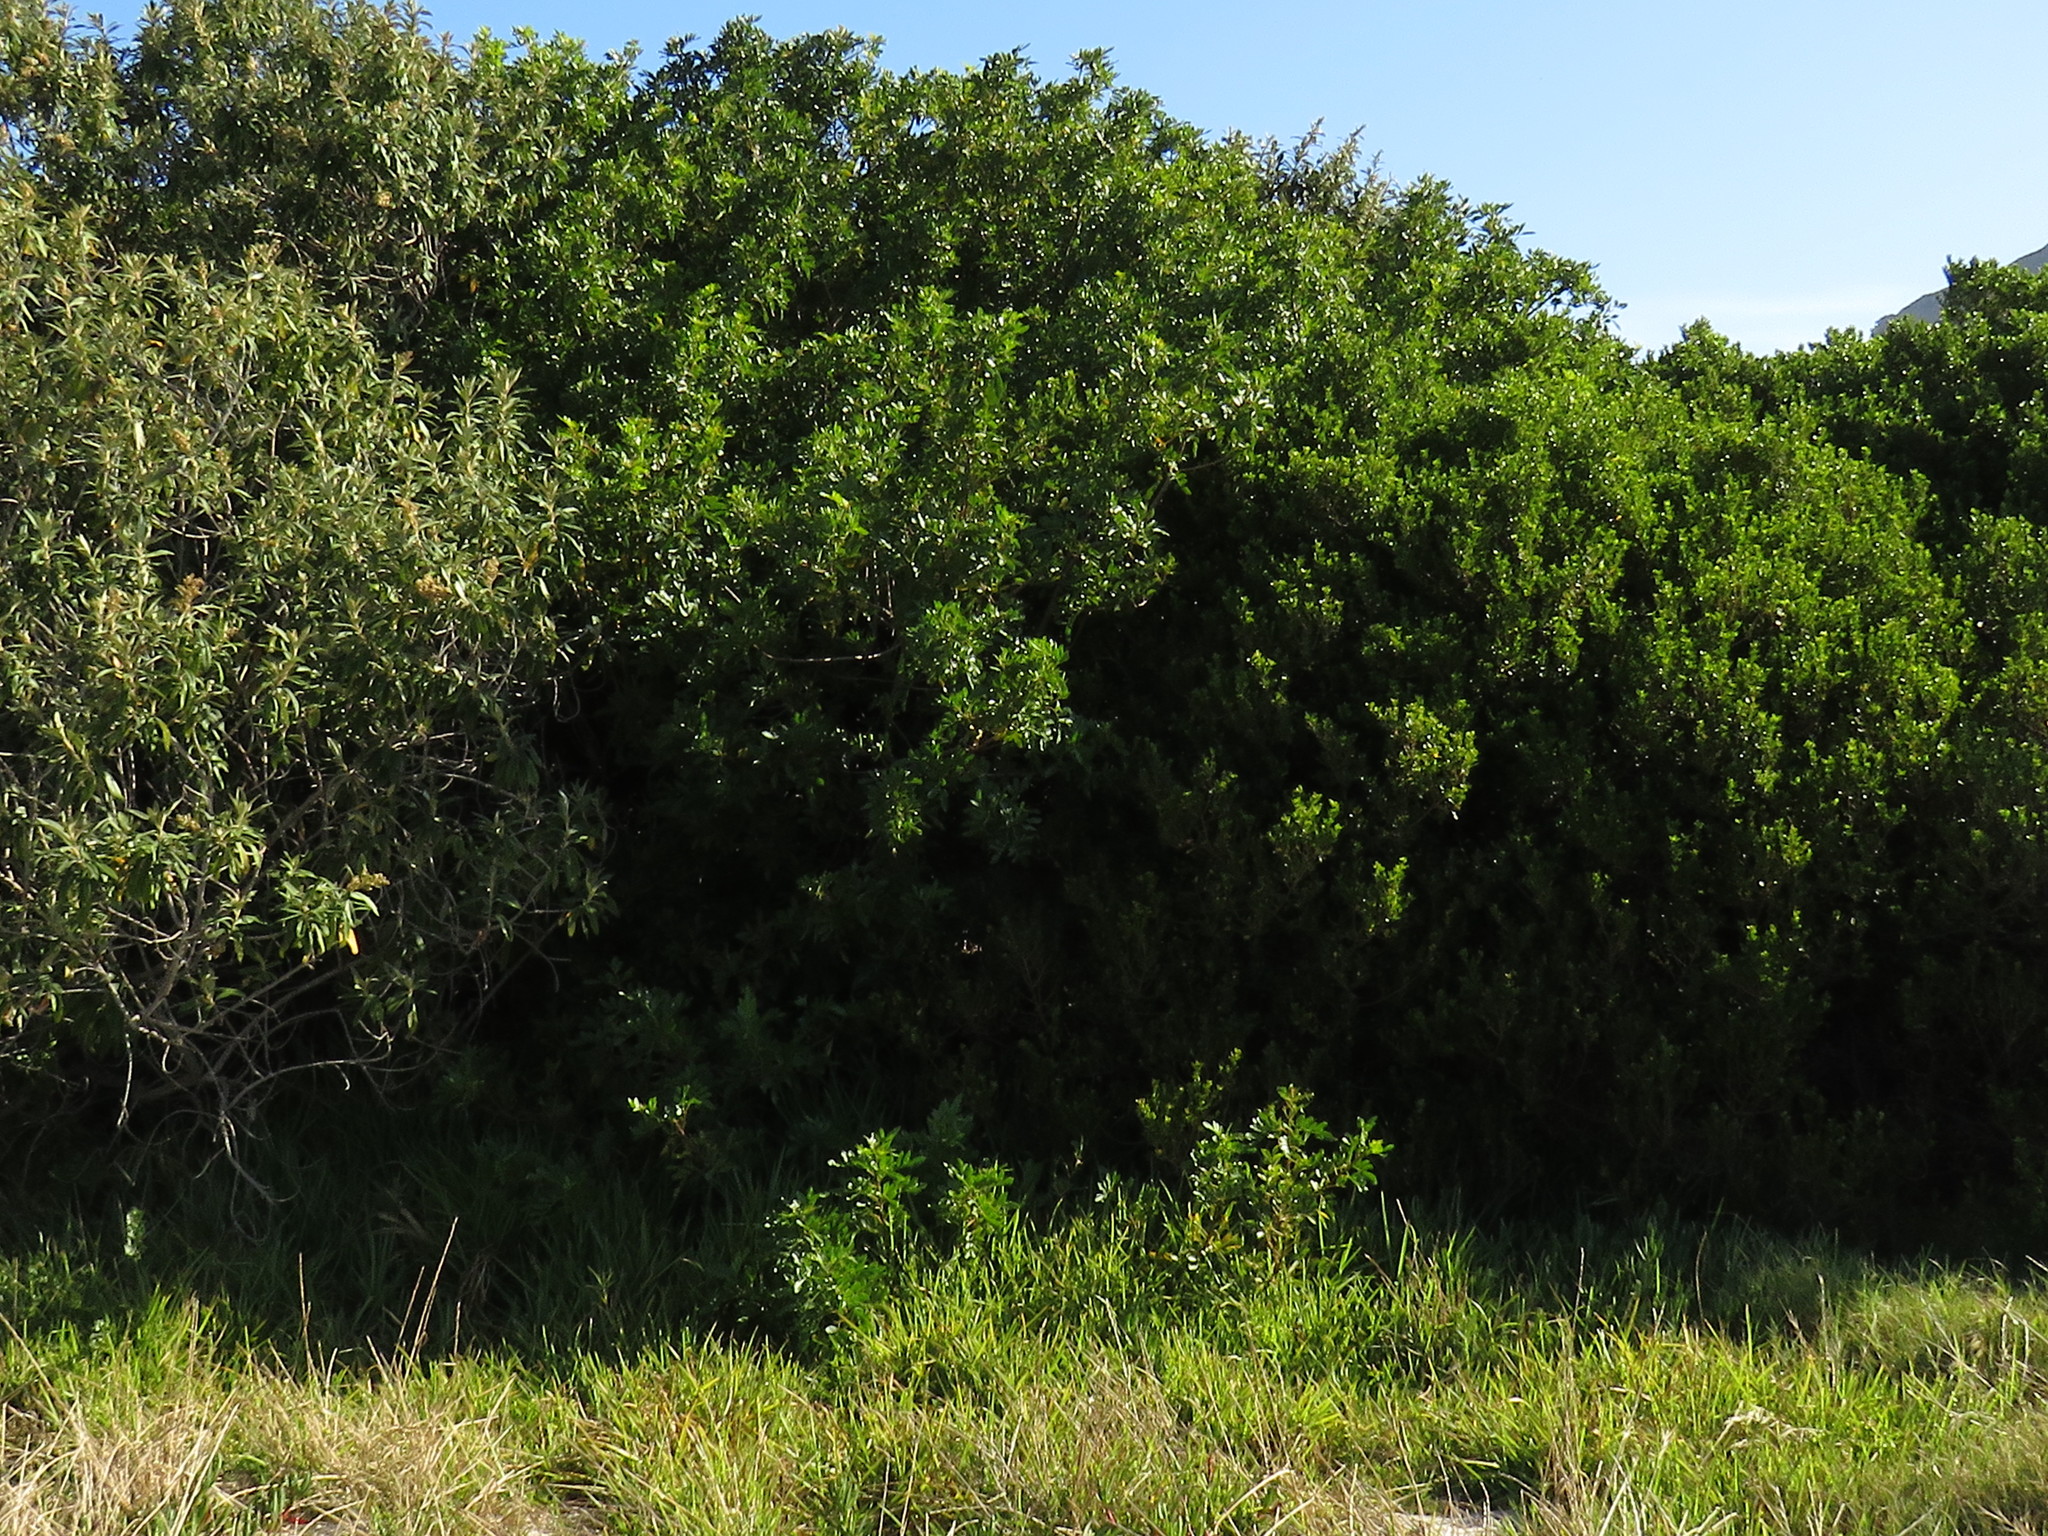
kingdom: Plantae
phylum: Tracheophyta
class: Magnoliopsida
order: Sapindales
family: Anacardiaceae
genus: Schinus
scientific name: Schinus terebinthifolia
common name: Brazilian peppertree
